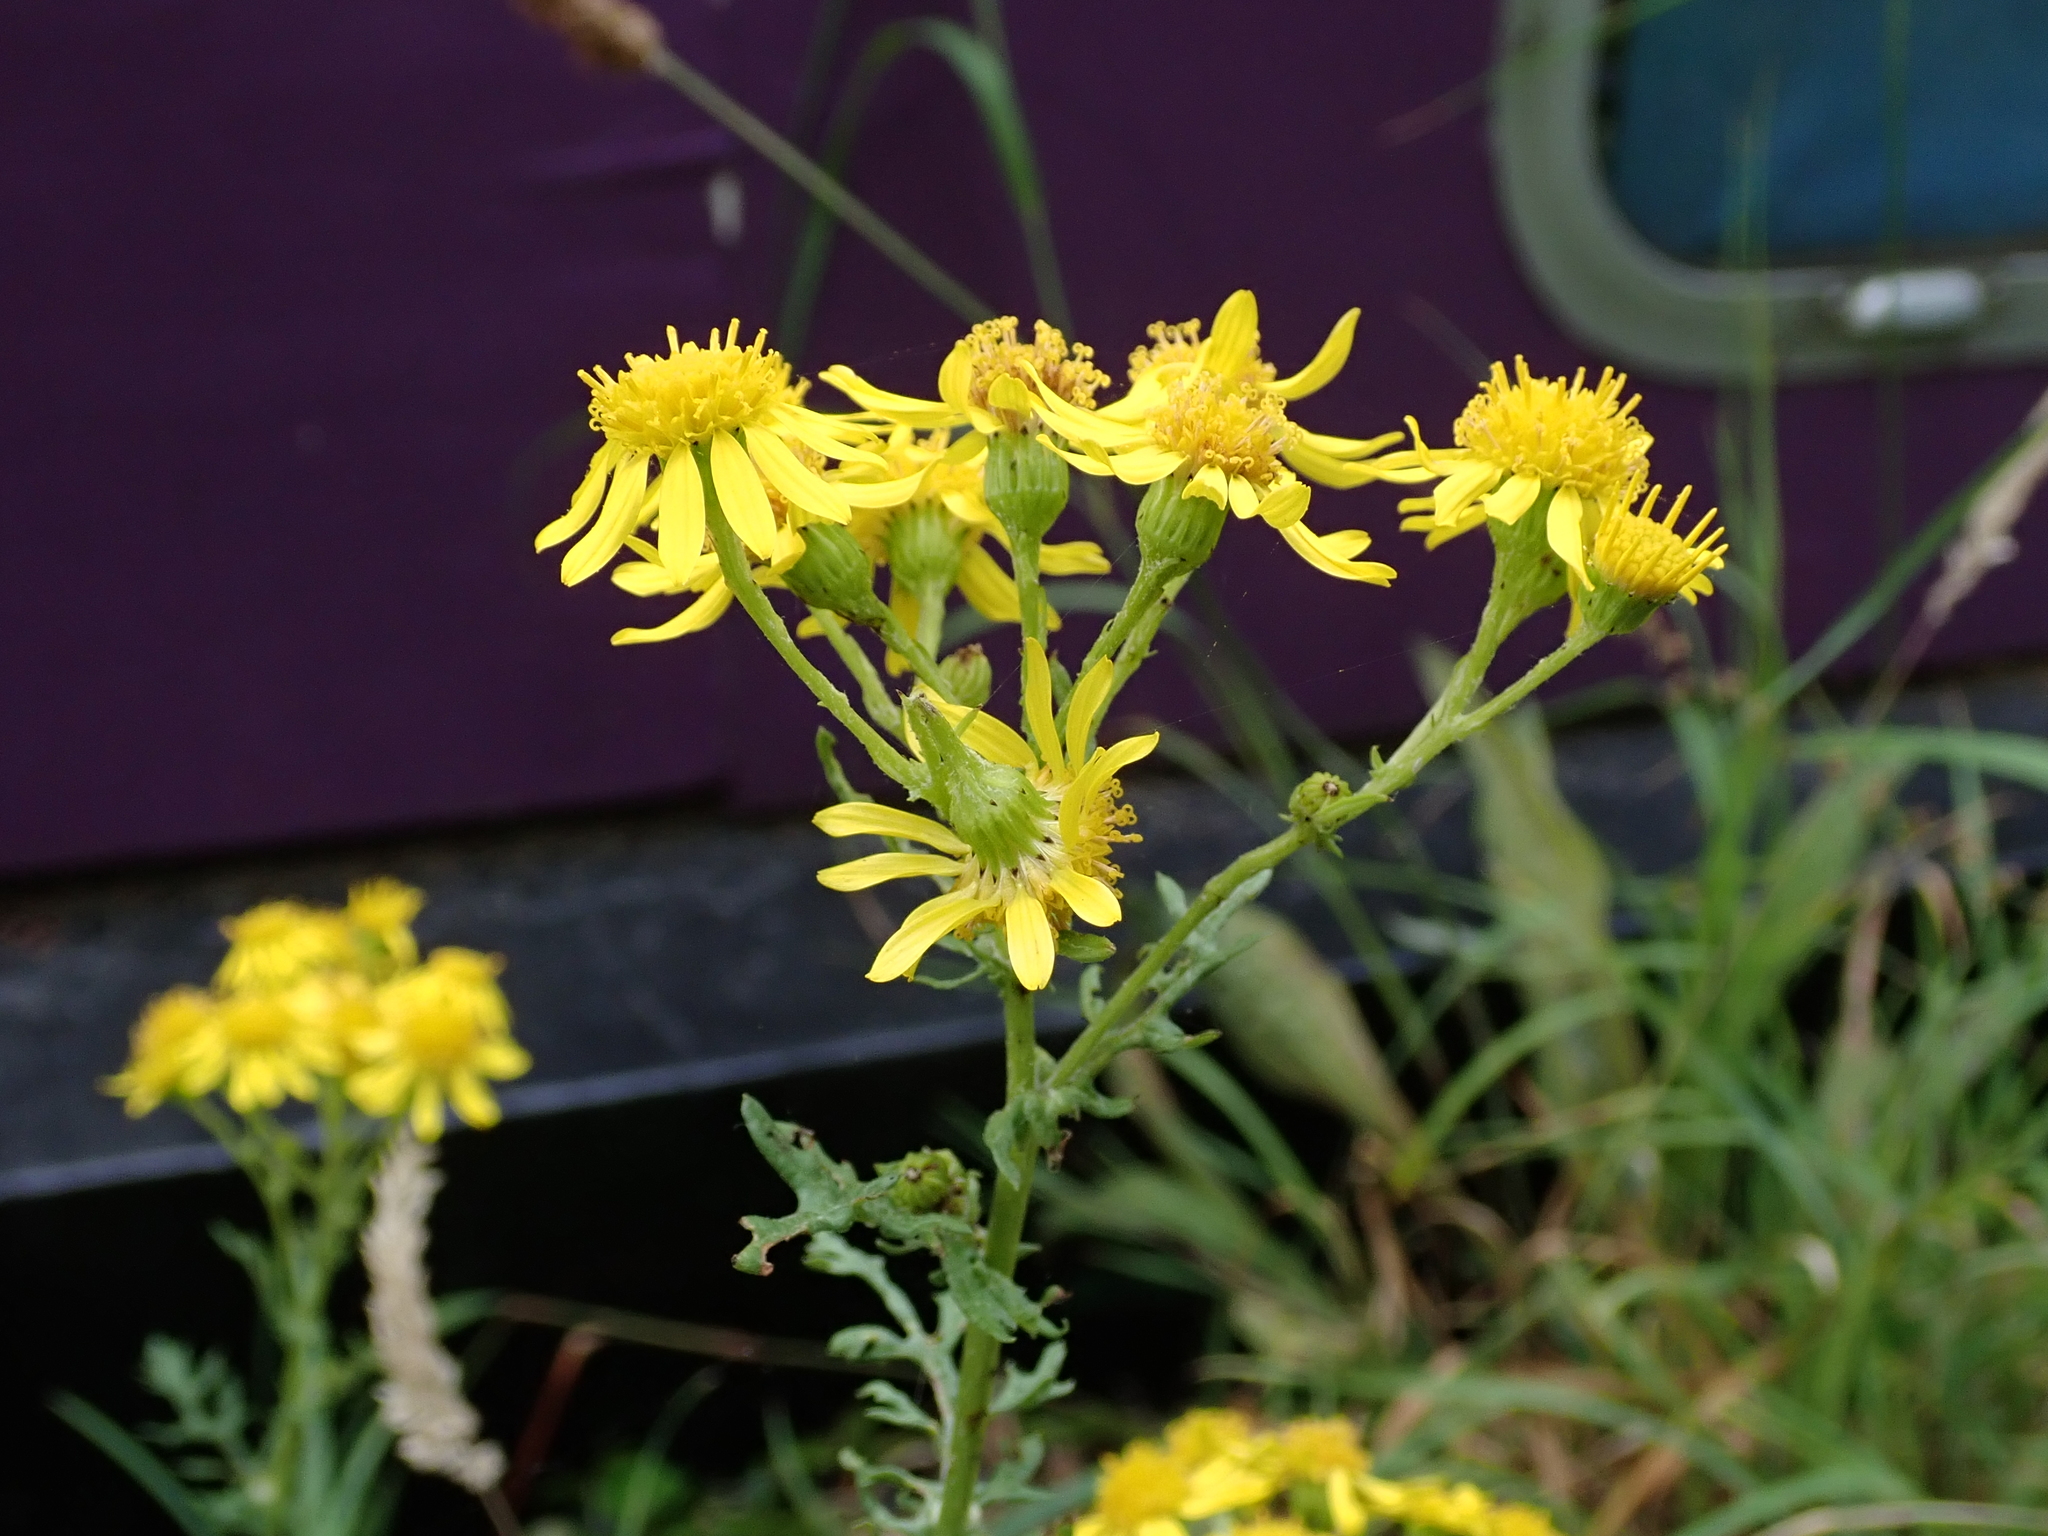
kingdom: Plantae
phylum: Tracheophyta
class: Magnoliopsida
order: Asterales
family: Asteraceae
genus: Jacobaea
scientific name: Jacobaea vulgaris
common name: Stinking willie
